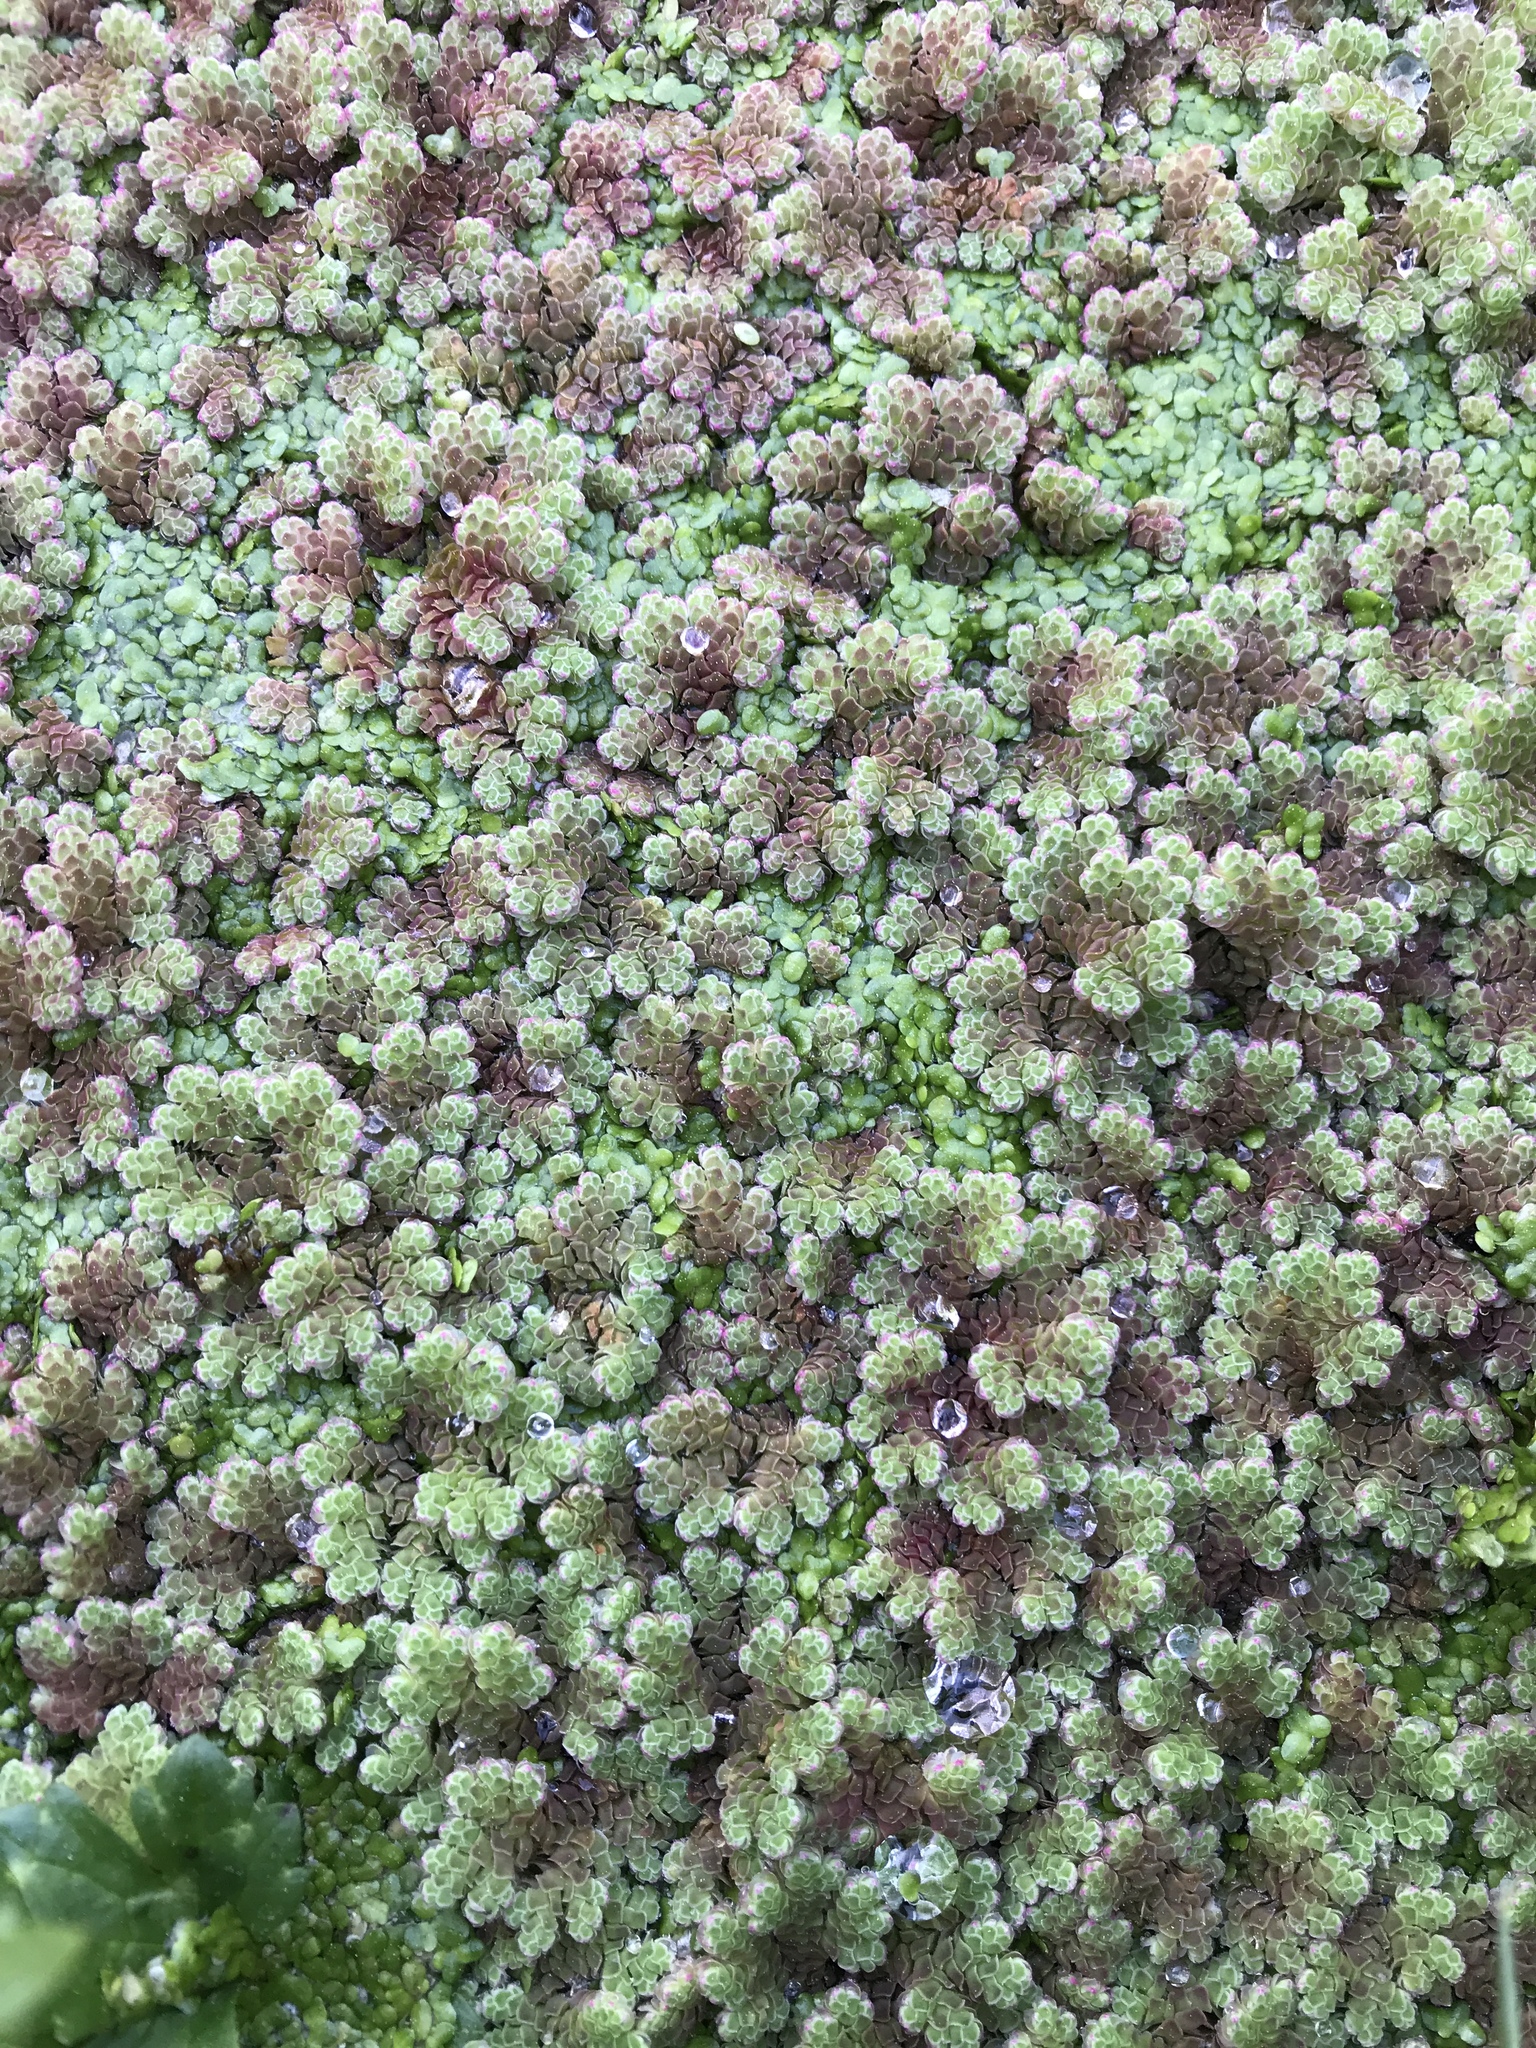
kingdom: Plantae
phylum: Tracheophyta
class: Polypodiopsida
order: Salviniales
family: Salviniaceae
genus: Azolla
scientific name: Azolla rubra
